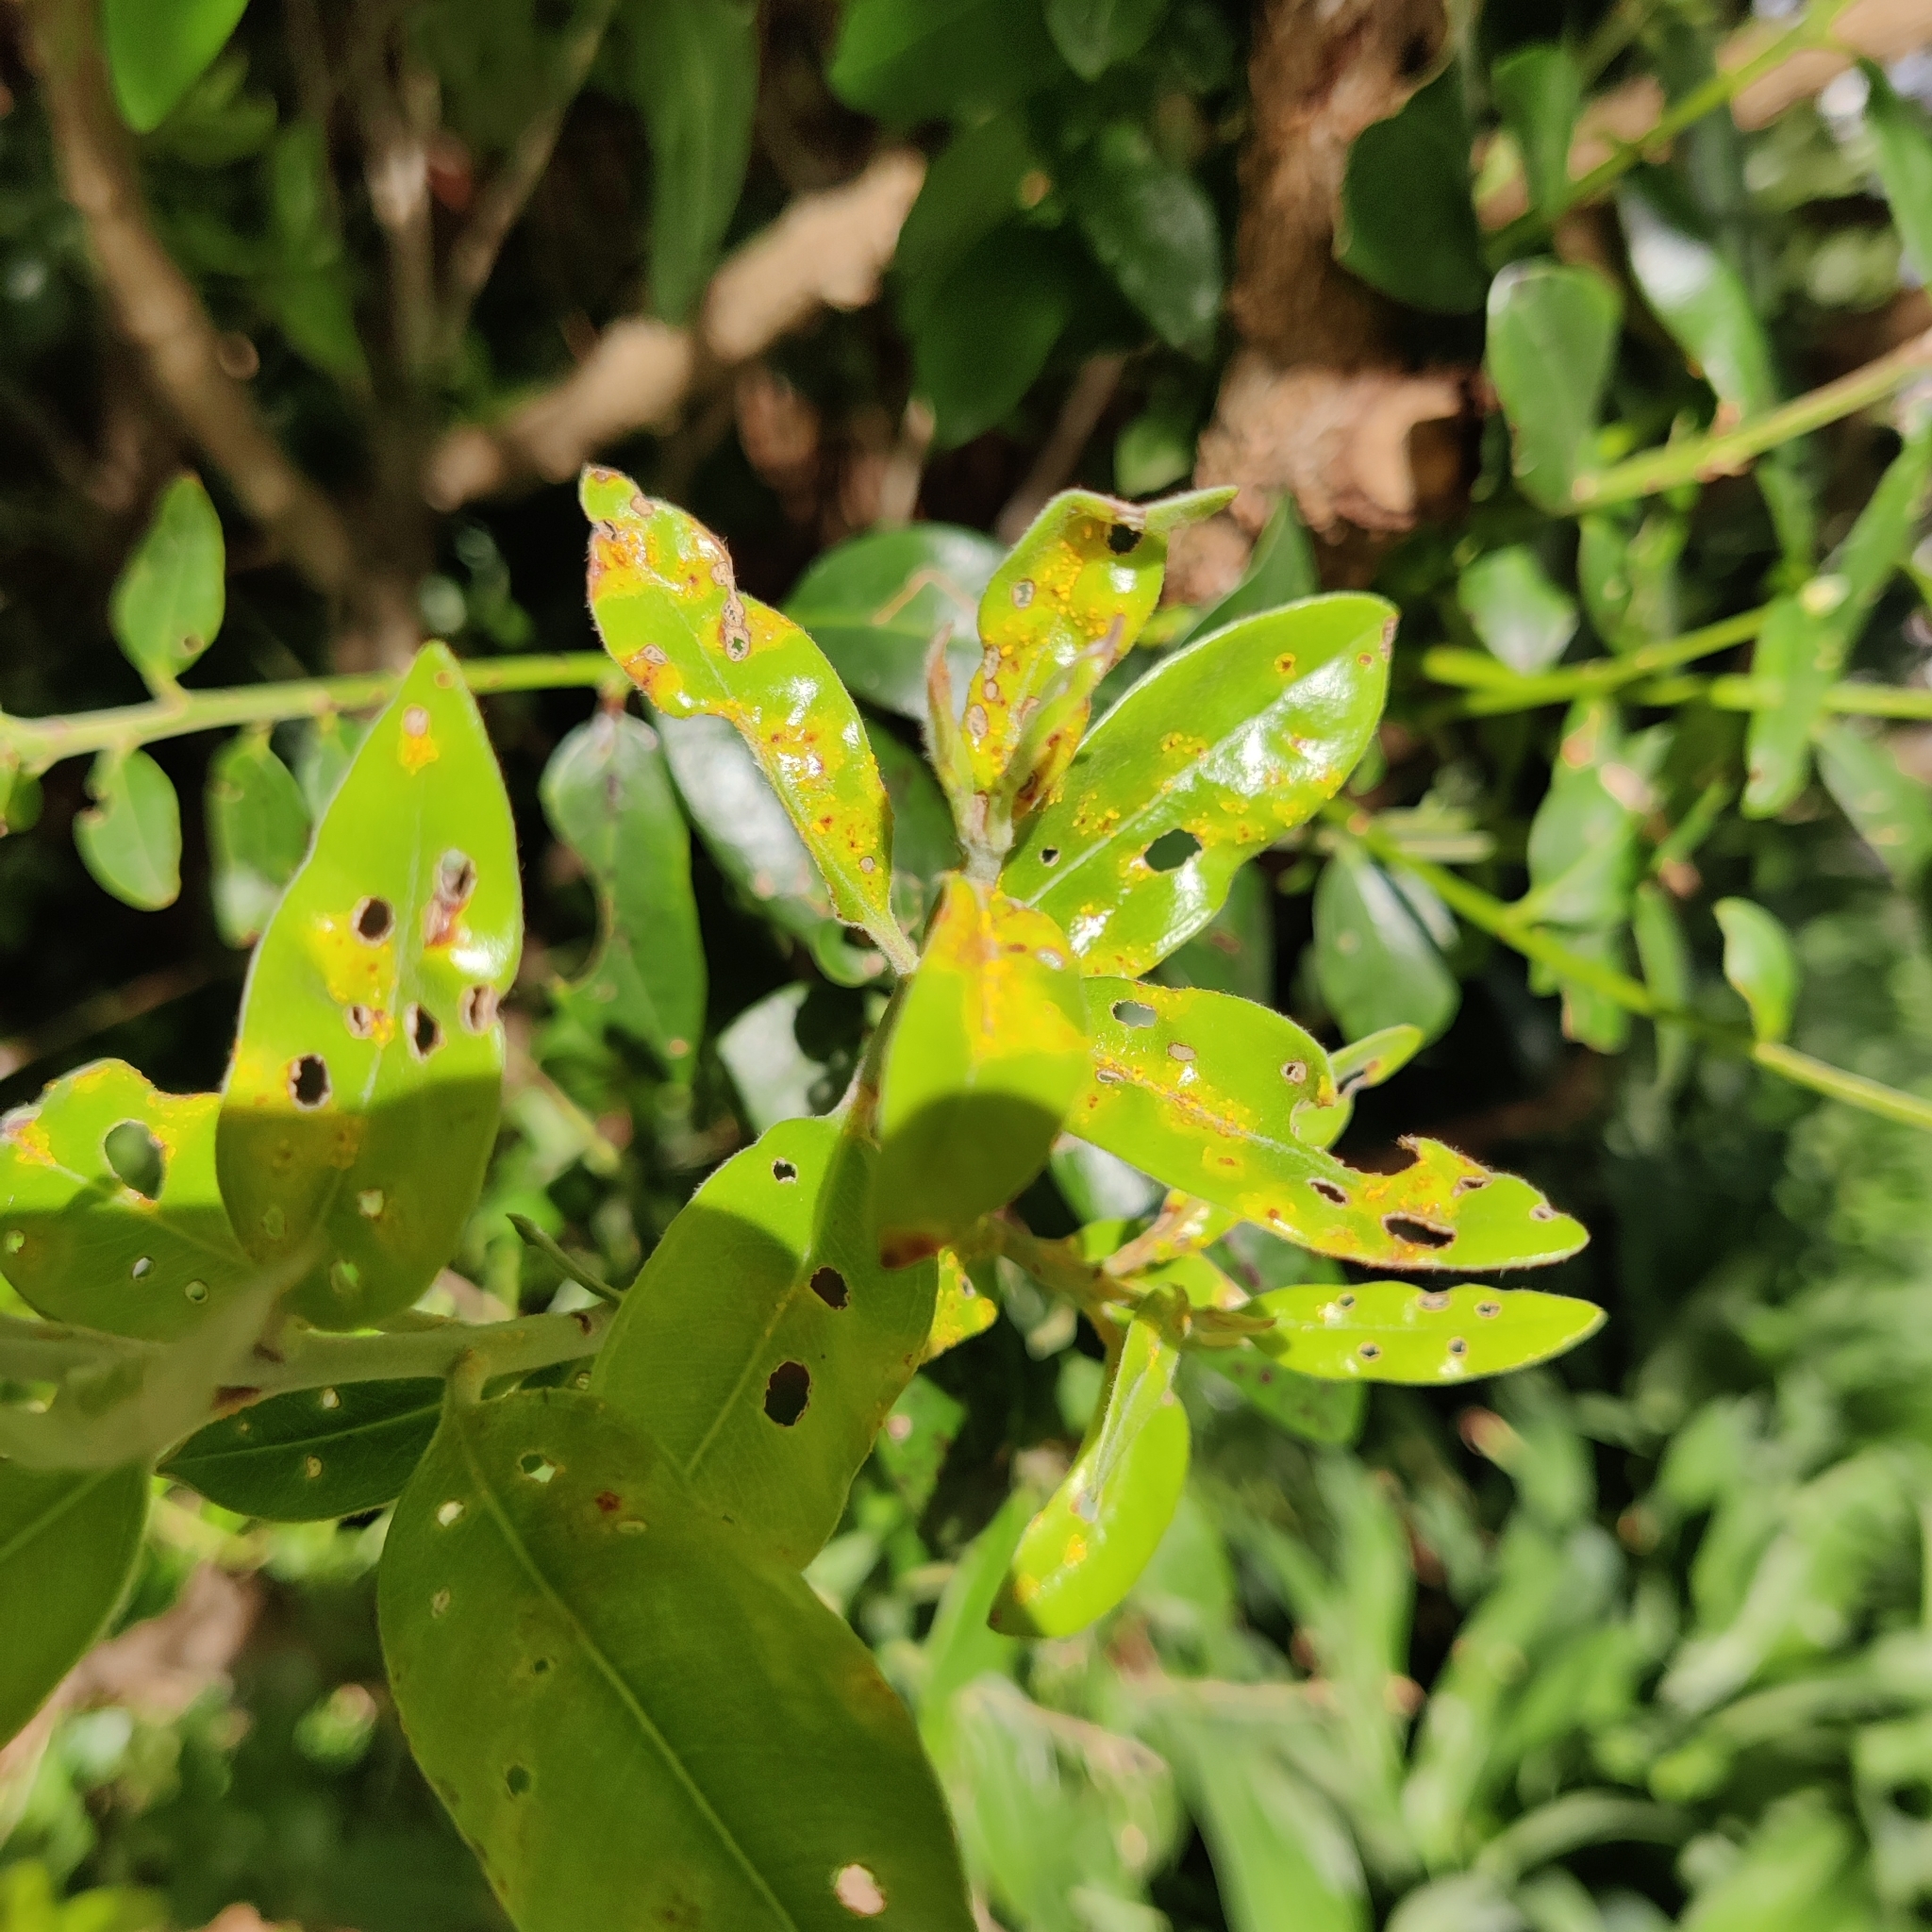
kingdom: Fungi
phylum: Basidiomycota
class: Pucciniomycetes
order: Pucciniales
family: Sphaerophragmiaceae
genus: Austropuccinia
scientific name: Austropuccinia psidii
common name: Myrtle rust
